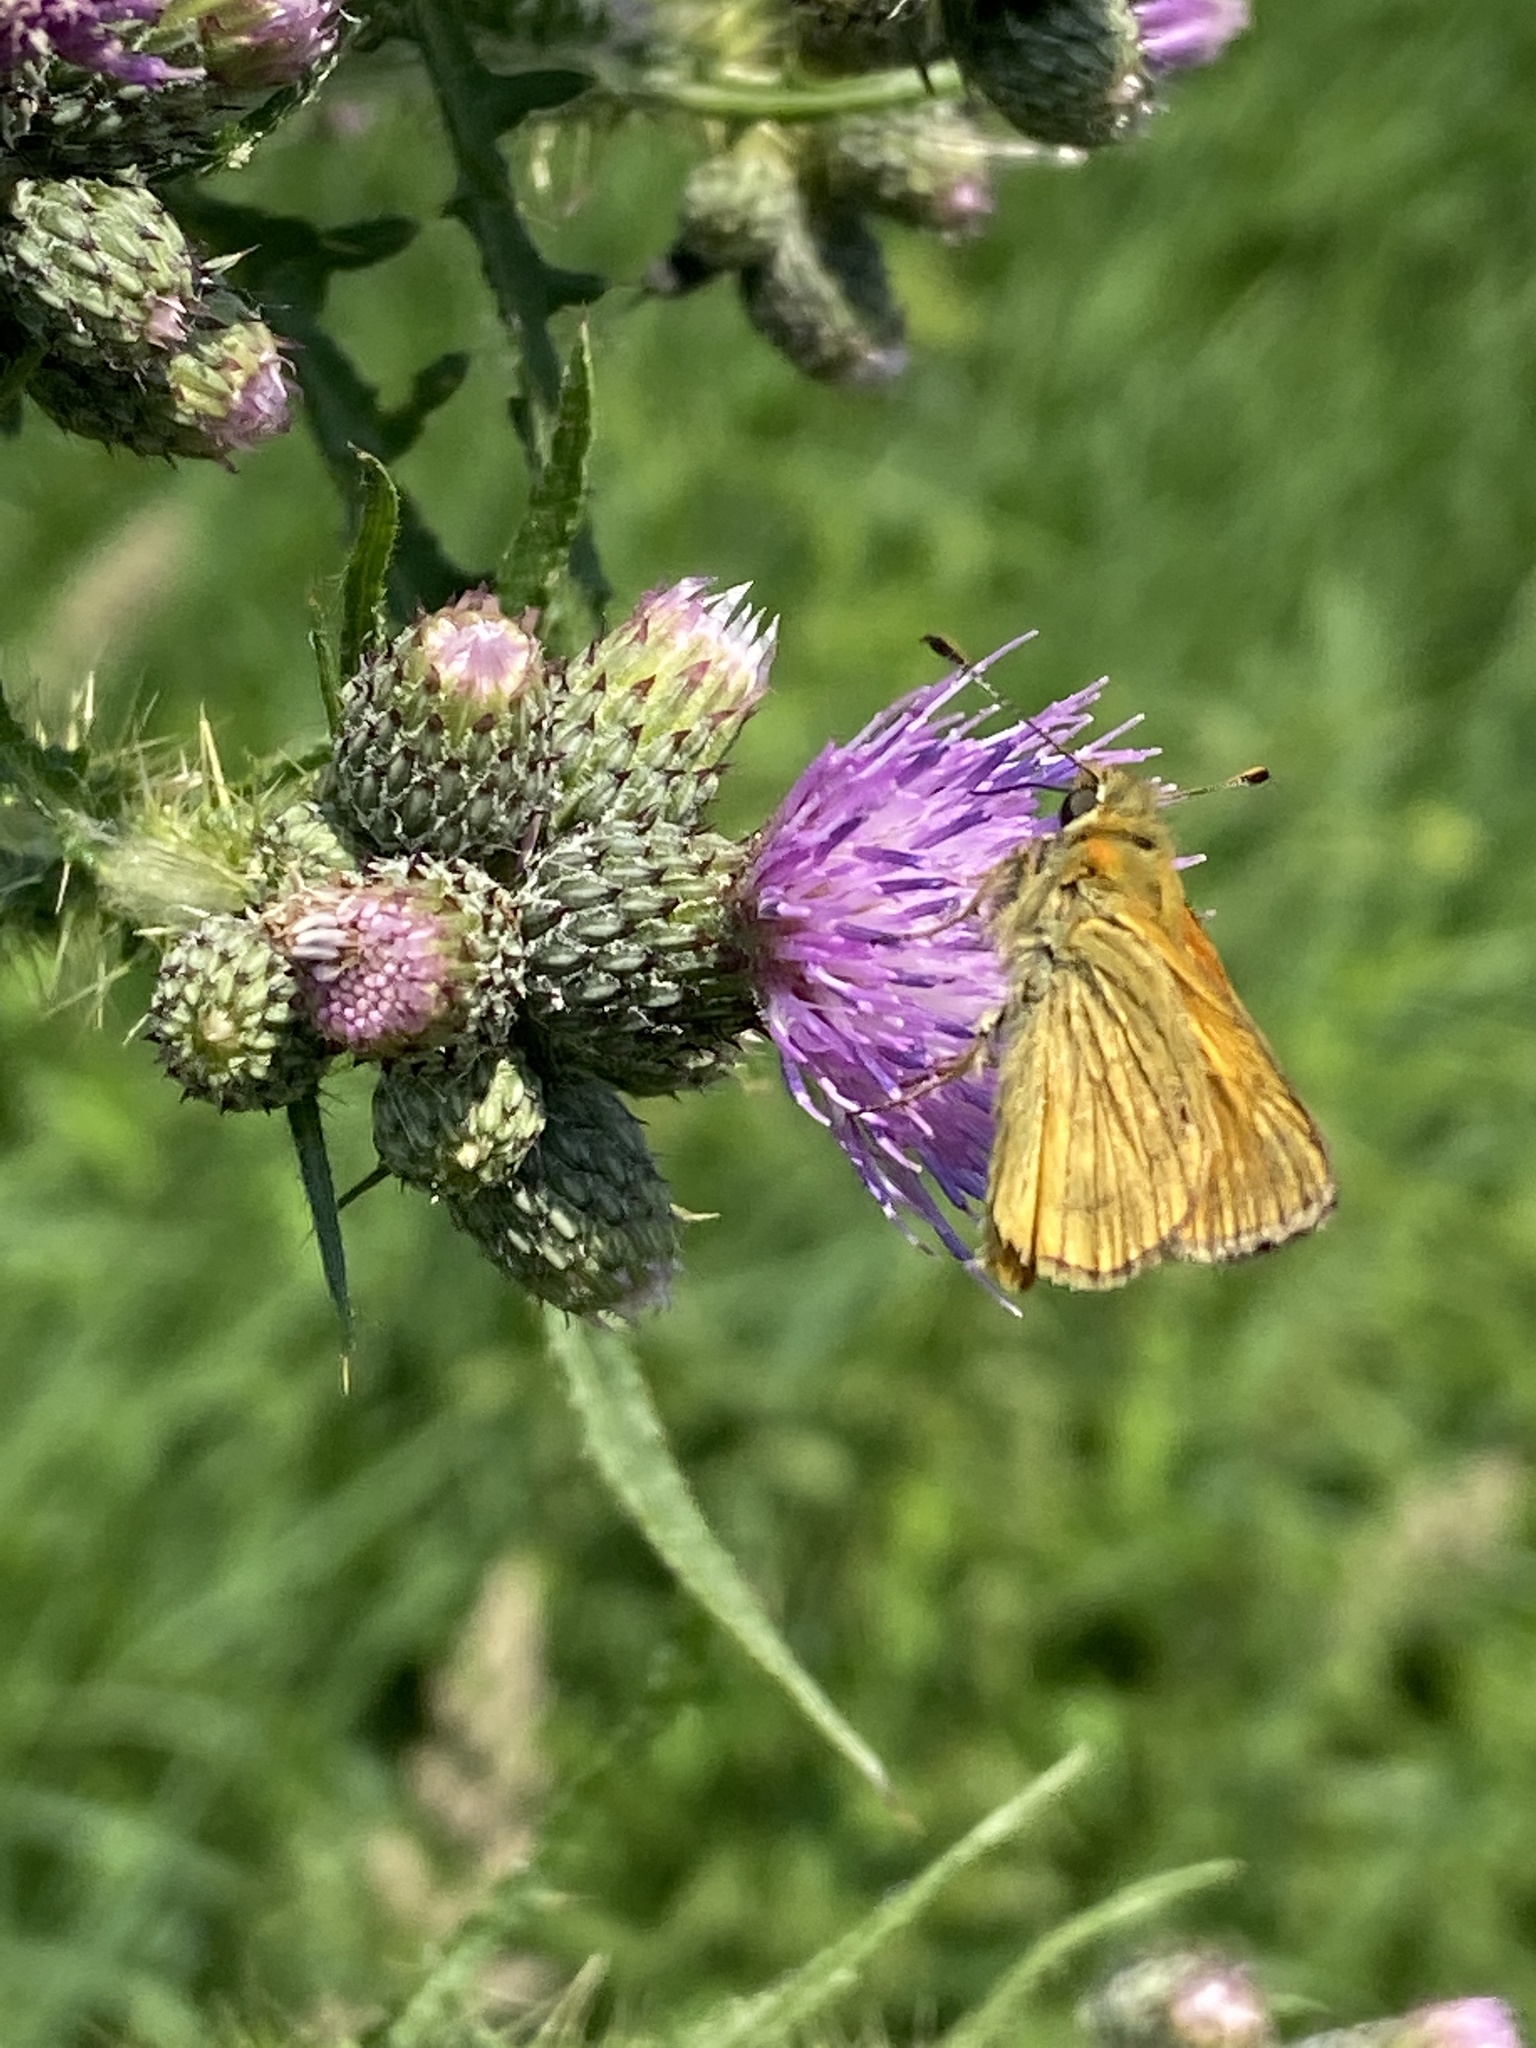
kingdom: Animalia
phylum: Arthropoda
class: Insecta
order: Lepidoptera
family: Hesperiidae
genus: Ochlodes
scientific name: Ochlodes venata
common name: Large skipper
